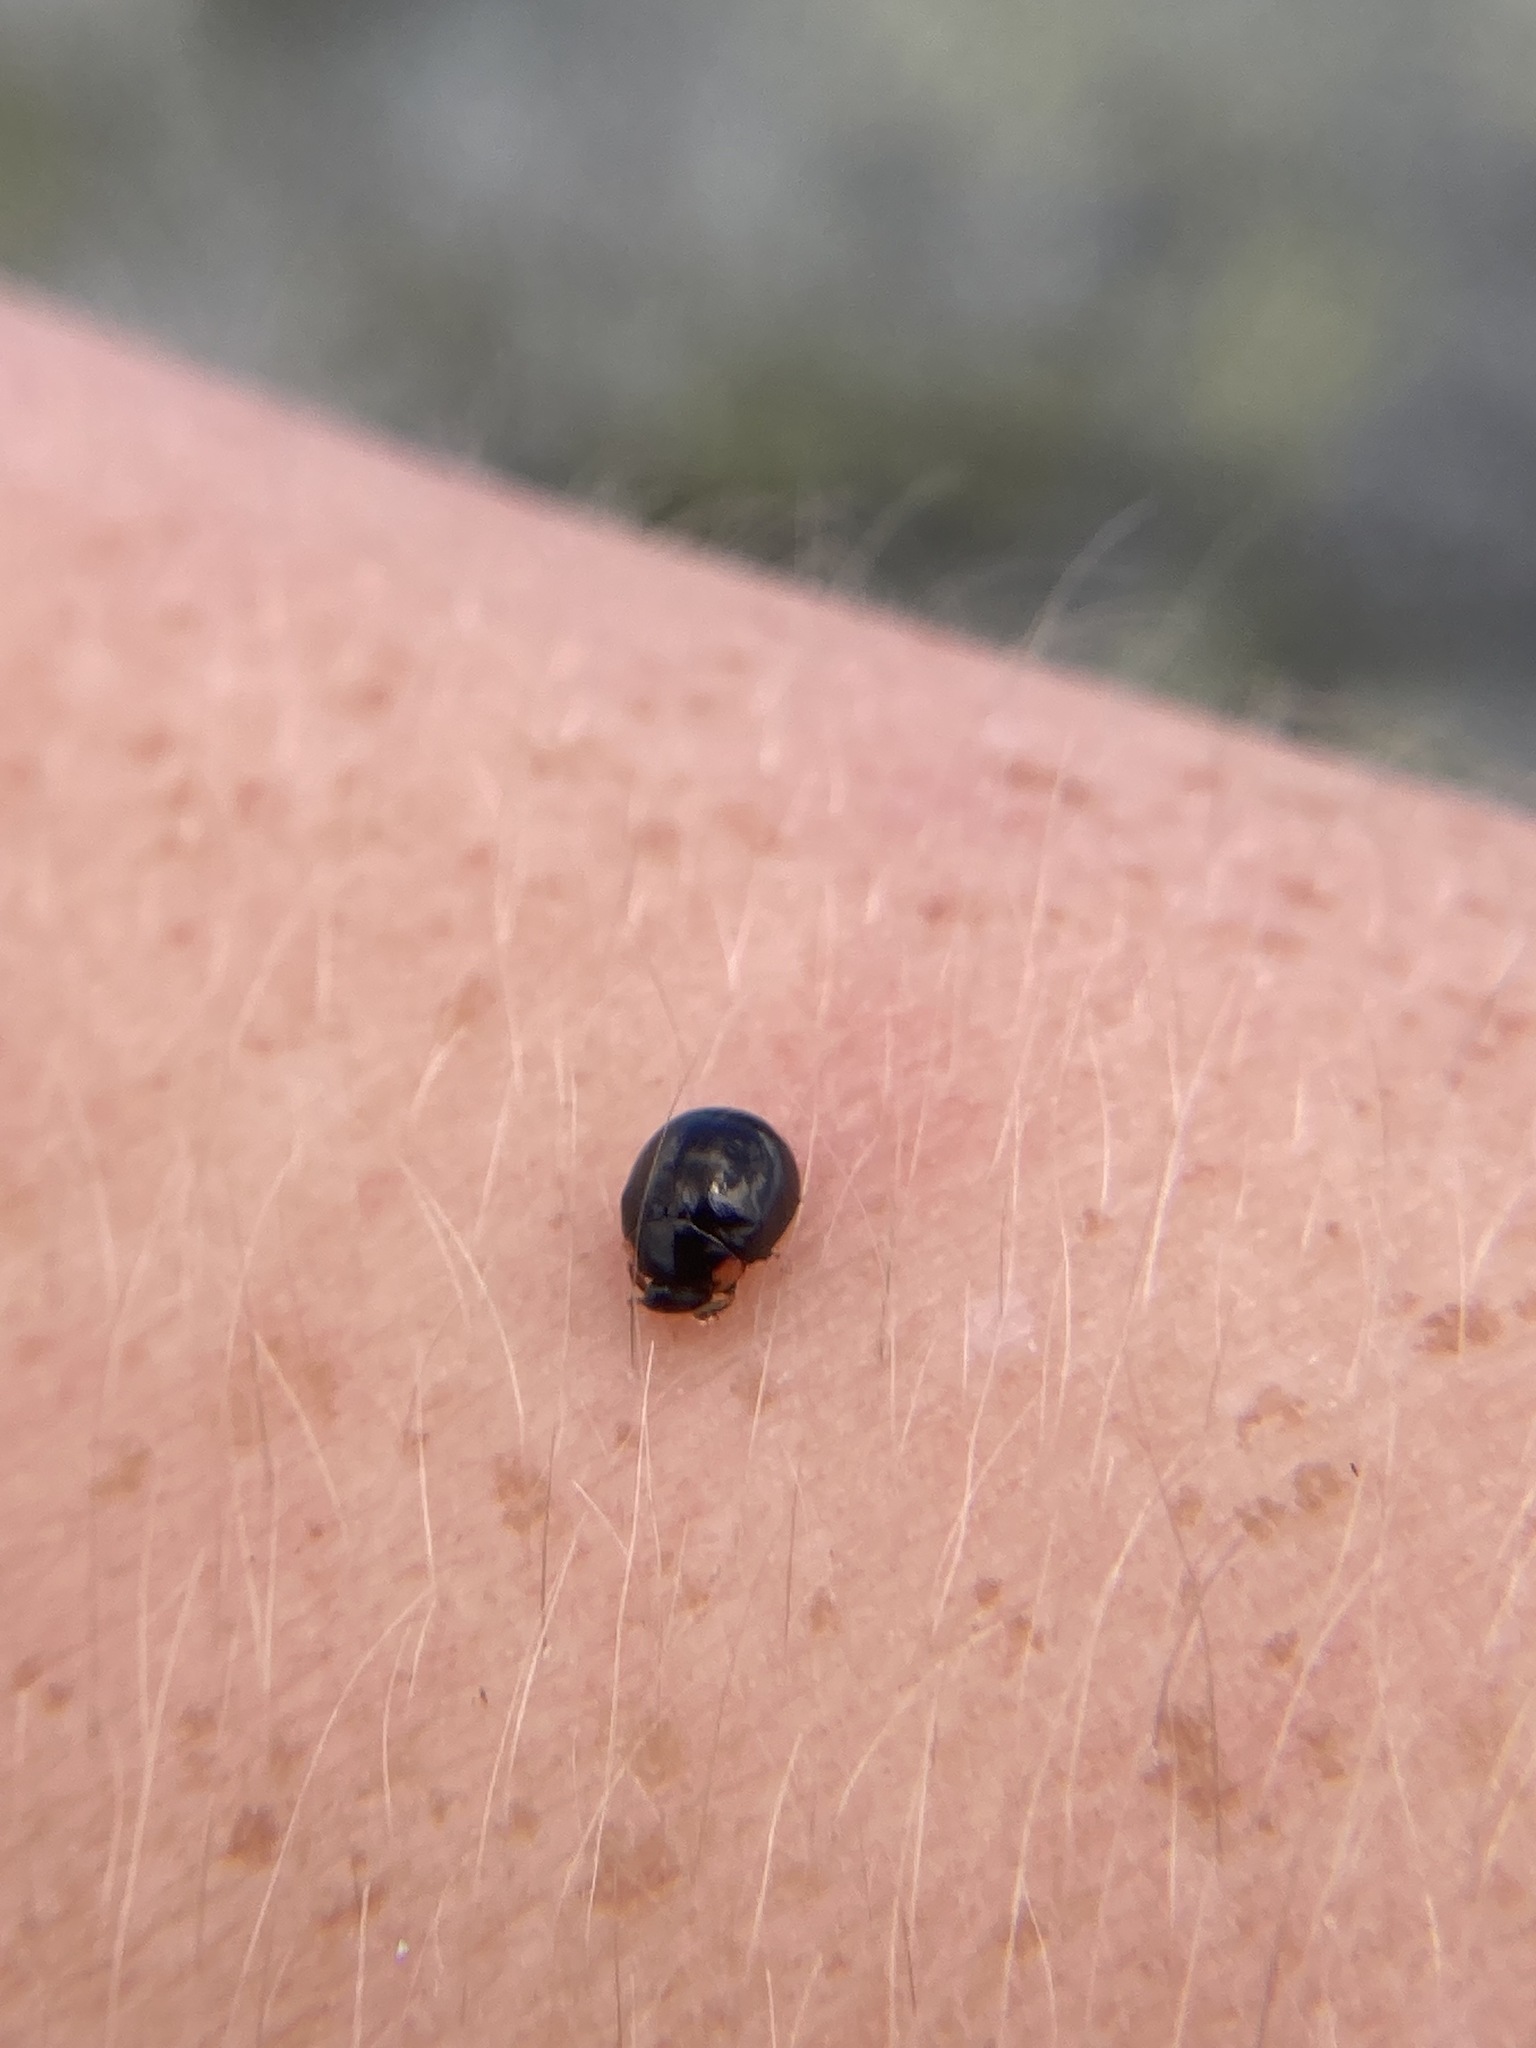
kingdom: Animalia
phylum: Arthropoda
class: Insecta
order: Coleoptera
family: Coccinellidae
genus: Hyperaspis
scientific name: Hyperaspis bigeminata
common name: Bigeminate sigil lady beetle
